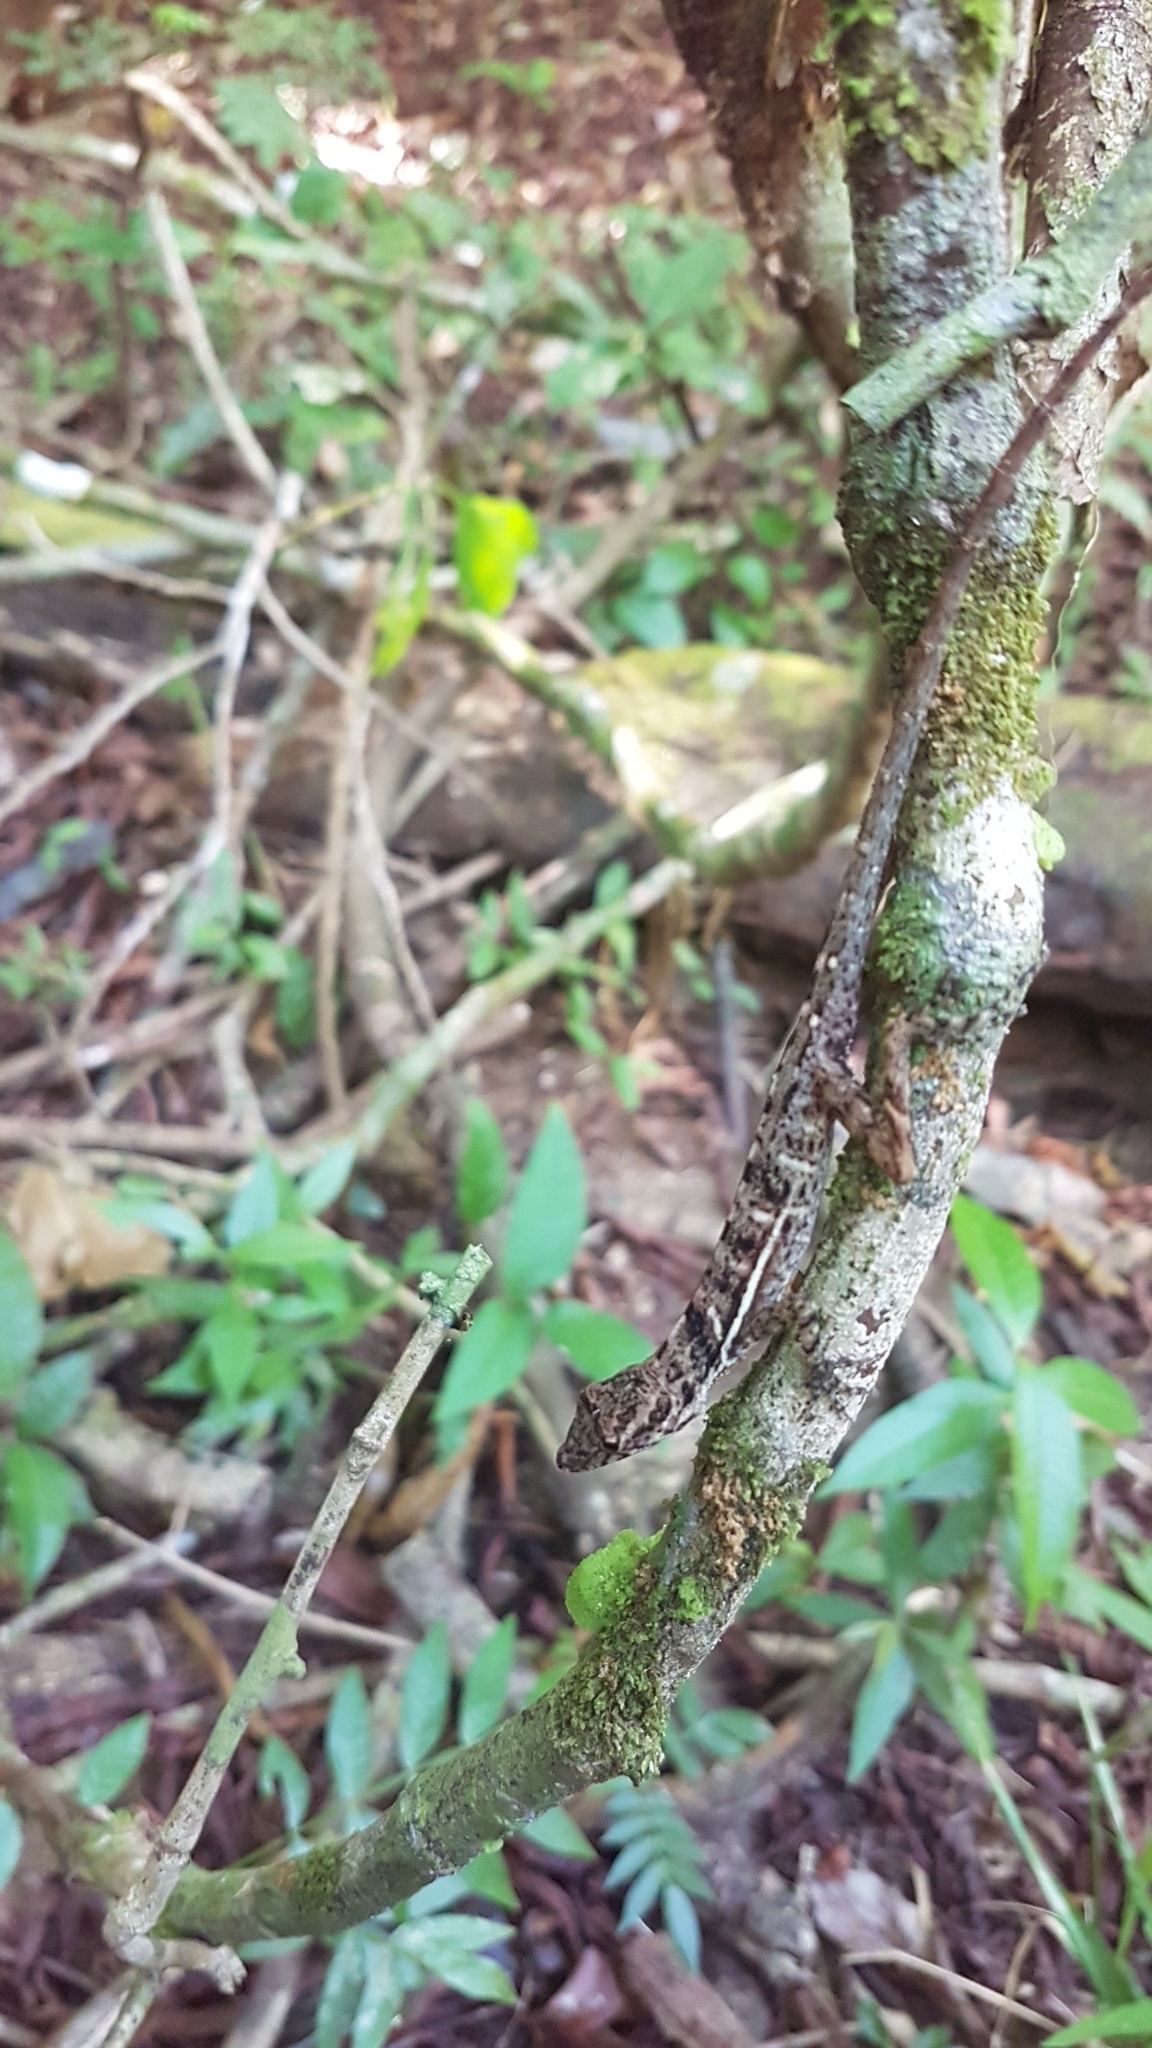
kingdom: Animalia
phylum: Chordata
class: Squamata
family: Dactyloidae
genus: Anolis
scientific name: Anolis osa
